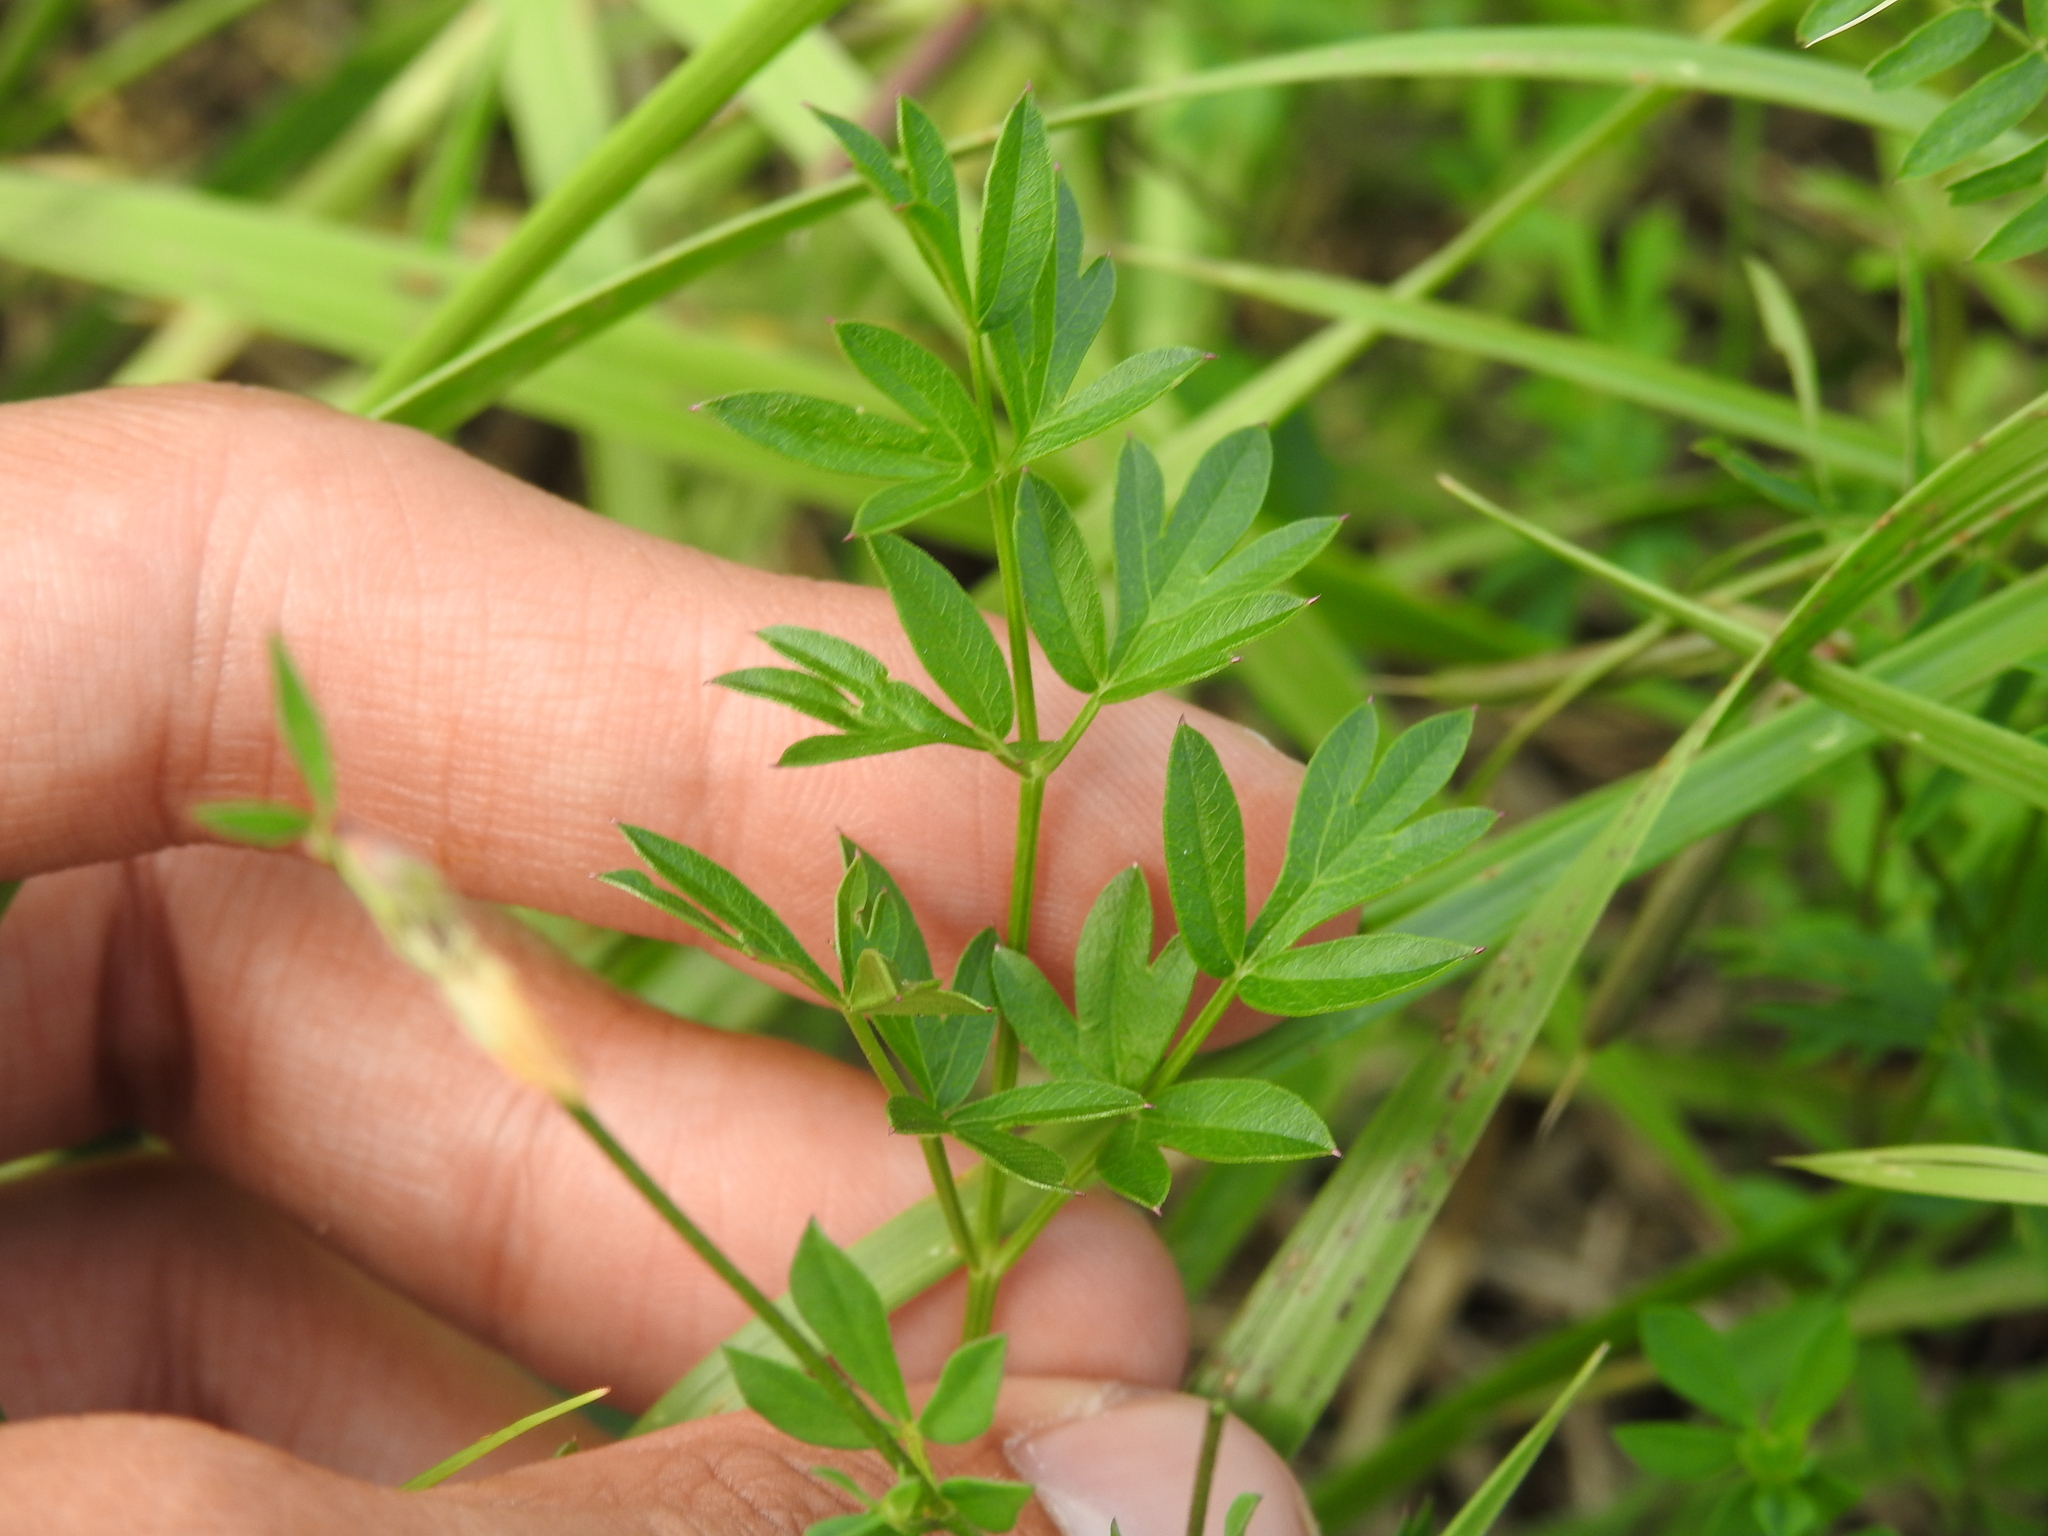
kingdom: Plantae
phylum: Tracheophyta
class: Magnoliopsida
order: Apiales
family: Apiaceae
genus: Silaum
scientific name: Silaum silaus
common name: Pepper-saxifrage
